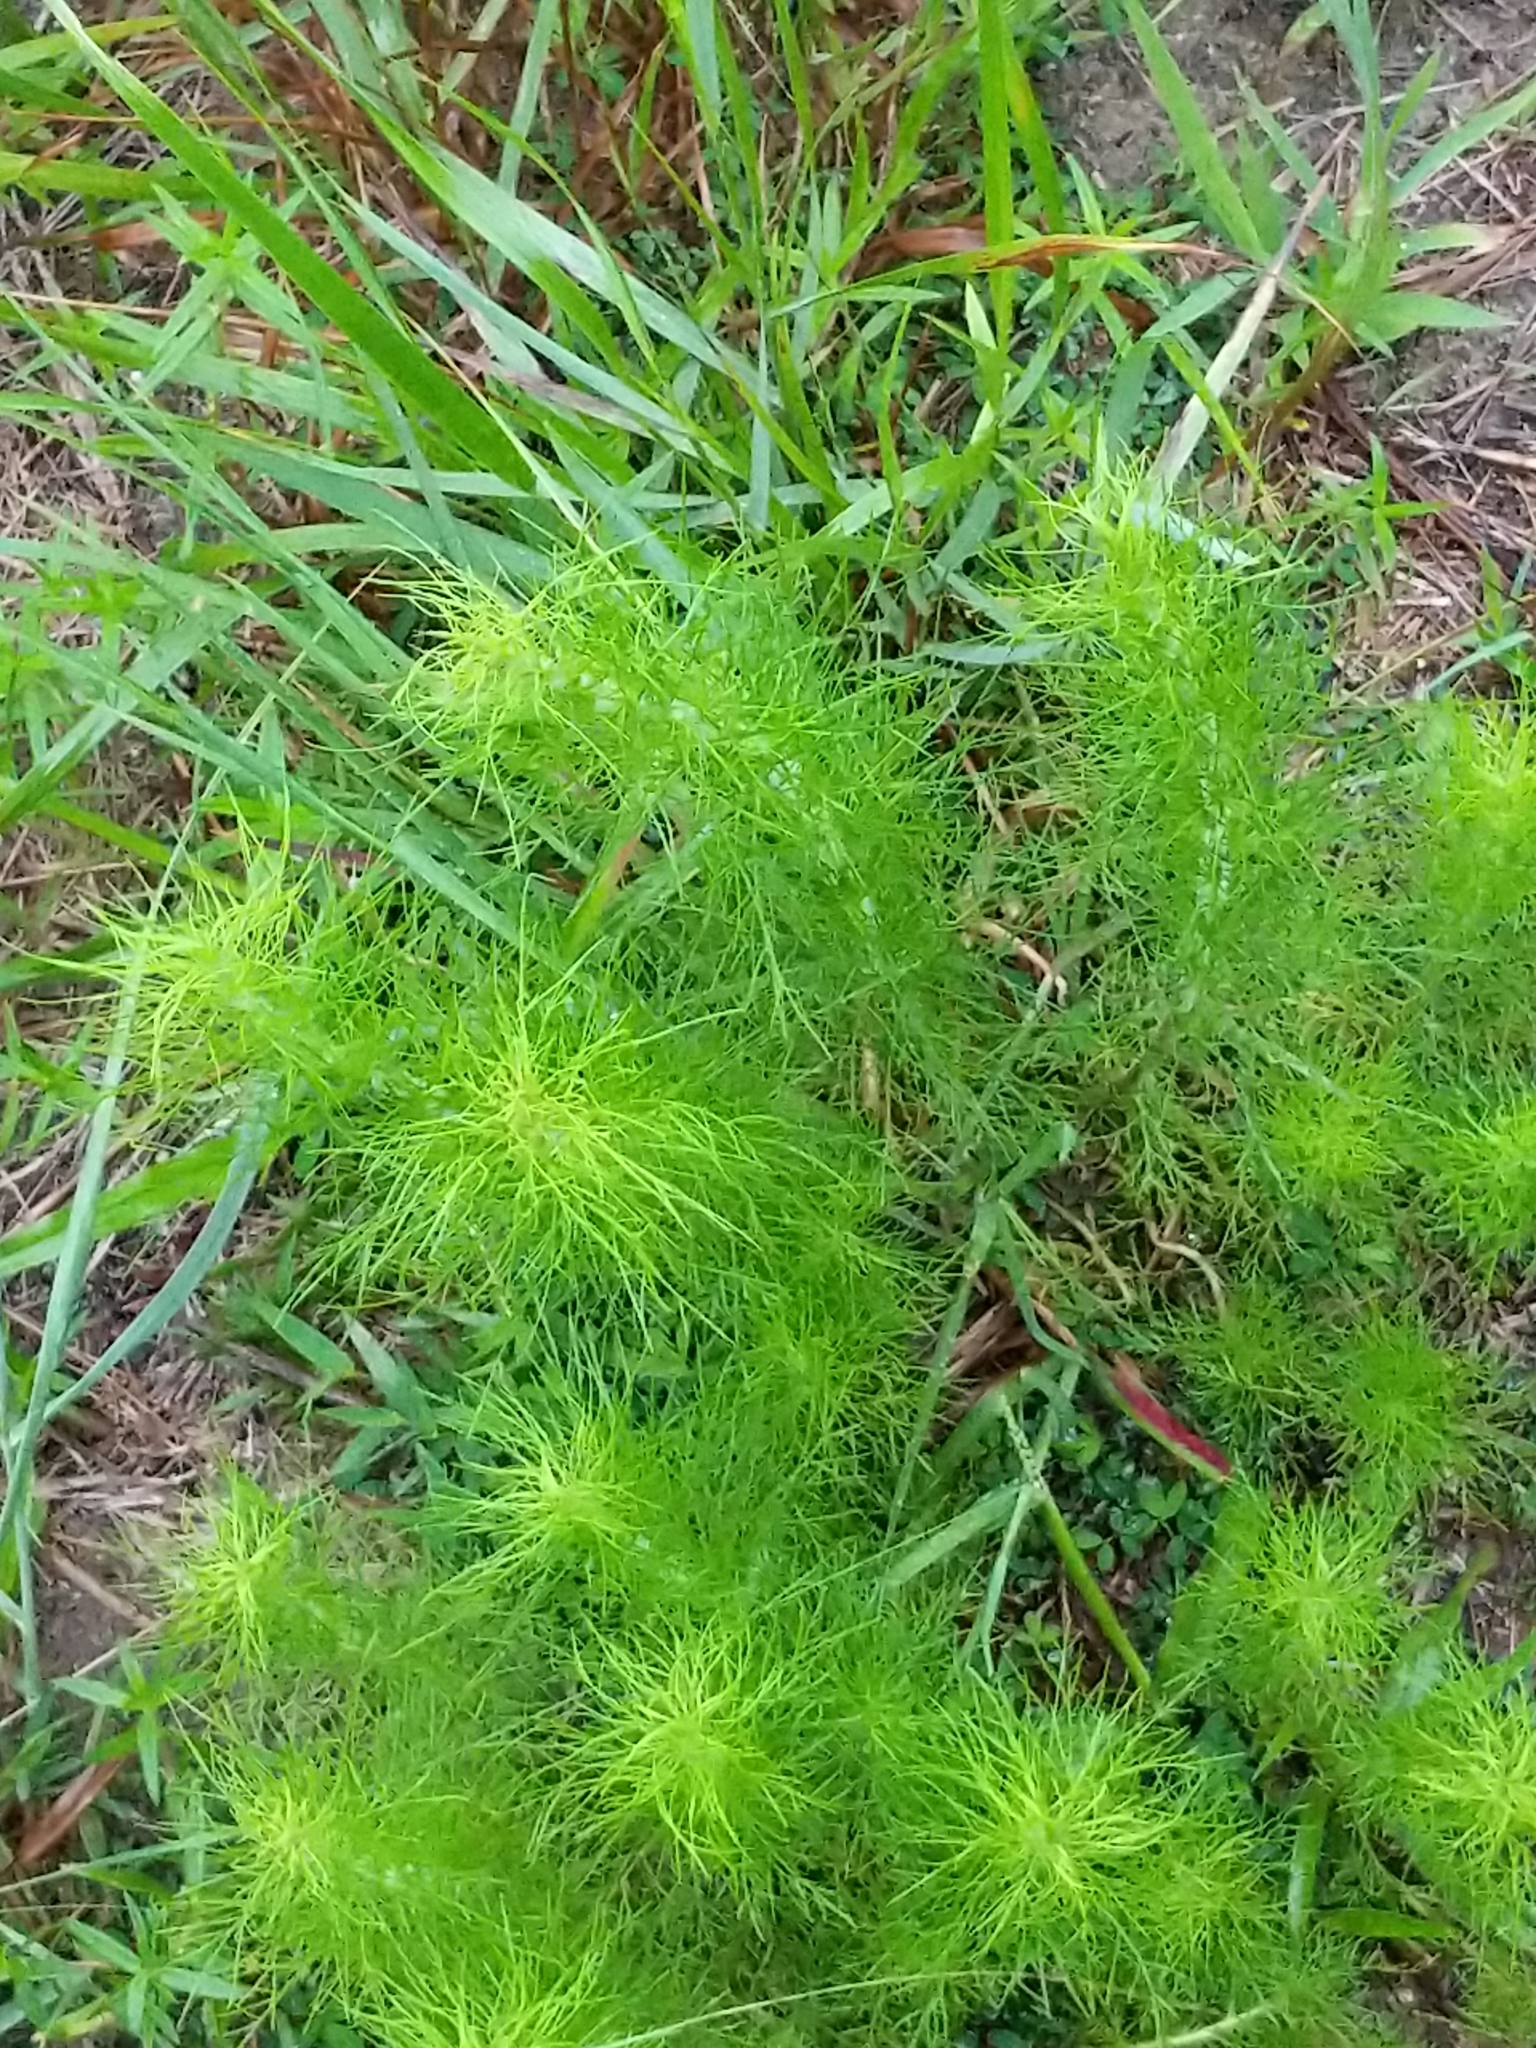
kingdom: Plantae
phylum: Tracheophyta
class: Magnoliopsida
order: Asterales
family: Asteraceae
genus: Eupatorium
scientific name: Eupatorium capillifolium
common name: Dog-fennel
